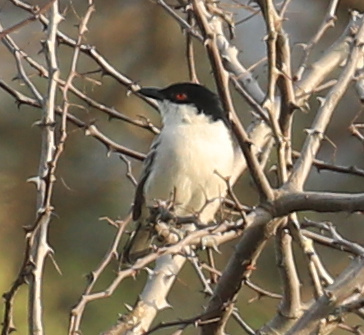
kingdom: Animalia
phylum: Chordata
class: Aves
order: Passeriformes
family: Malaconotidae
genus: Dryoscopus
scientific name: Dryoscopus cubla
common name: Black-backed puffback
